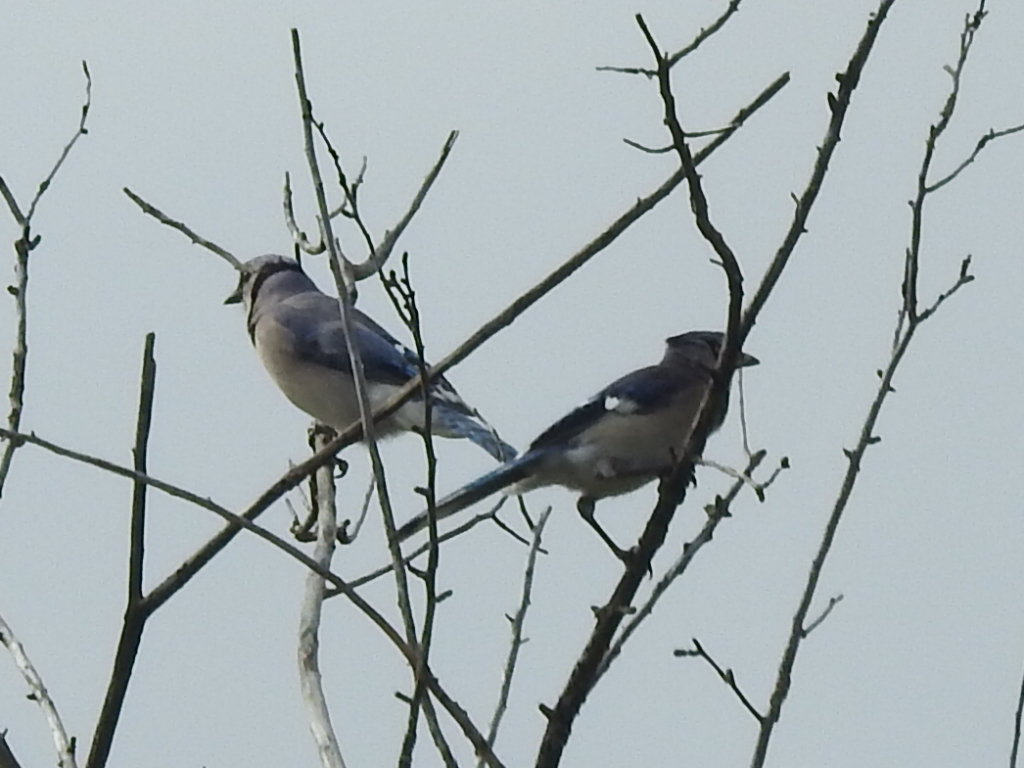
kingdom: Animalia
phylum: Chordata
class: Aves
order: Passeriformes
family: Corvidae
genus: Cyanocitta
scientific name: Cyanocitta cristata
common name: Blue jay
